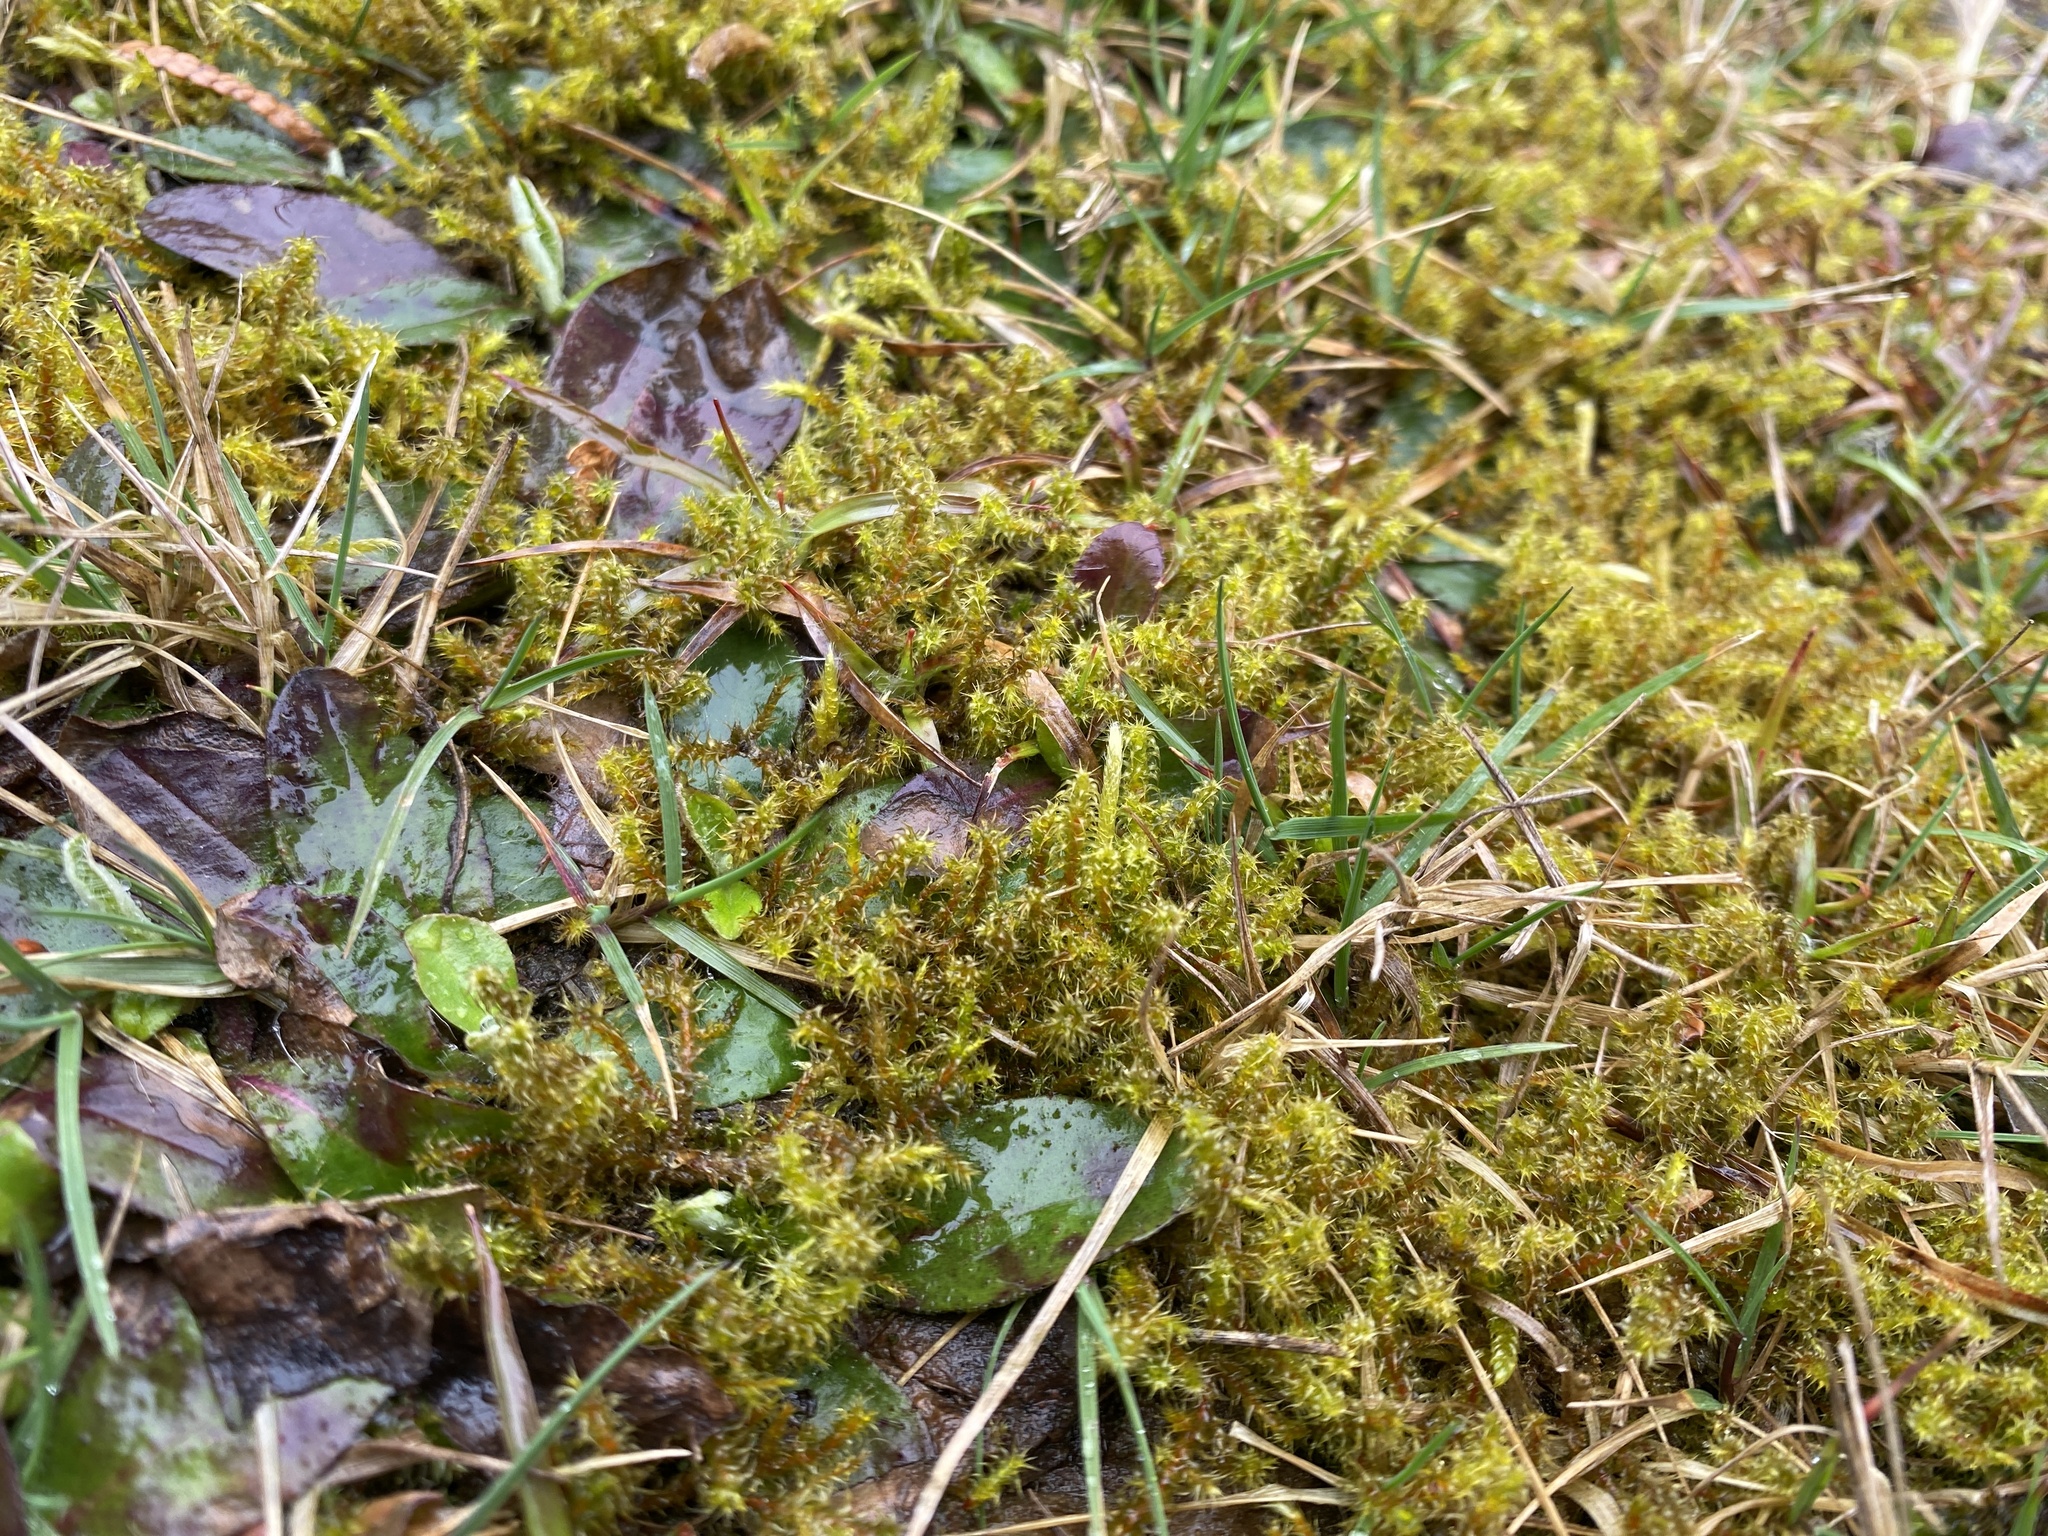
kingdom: Plantae
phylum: Bryophyta
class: Bryopsida
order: Hypnales
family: Hylocomiaceae
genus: Rhytidiadelphus
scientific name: Rhytidiadelphus squarrosus
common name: Springy turf-moss
